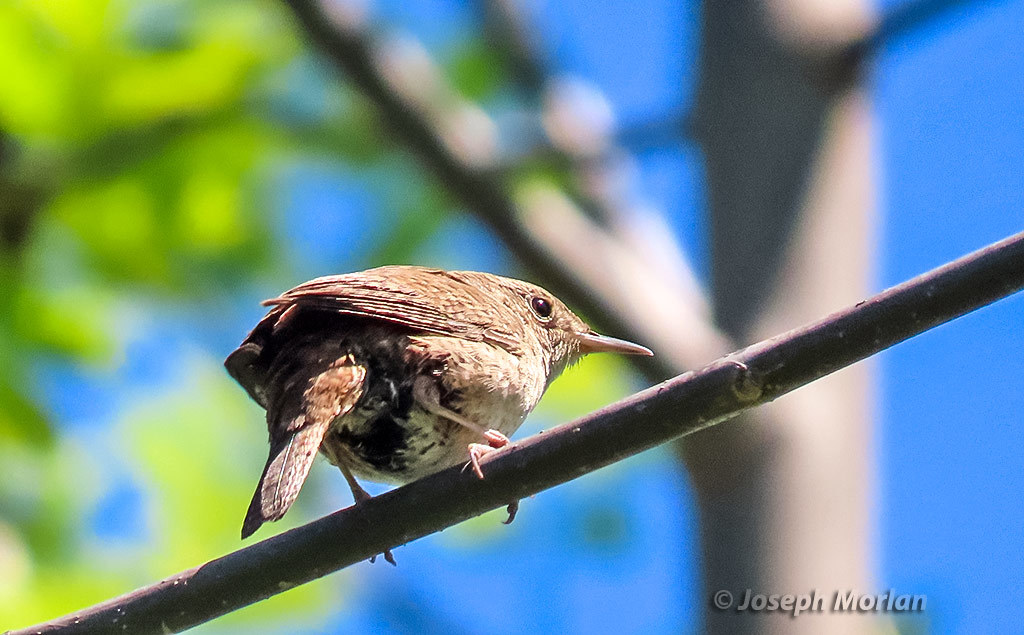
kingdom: Animalia
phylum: Chordata
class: Aves
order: Passeriformes
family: Troglodytidae
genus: Troglodytes
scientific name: Troglodytes aedon
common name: House wren
